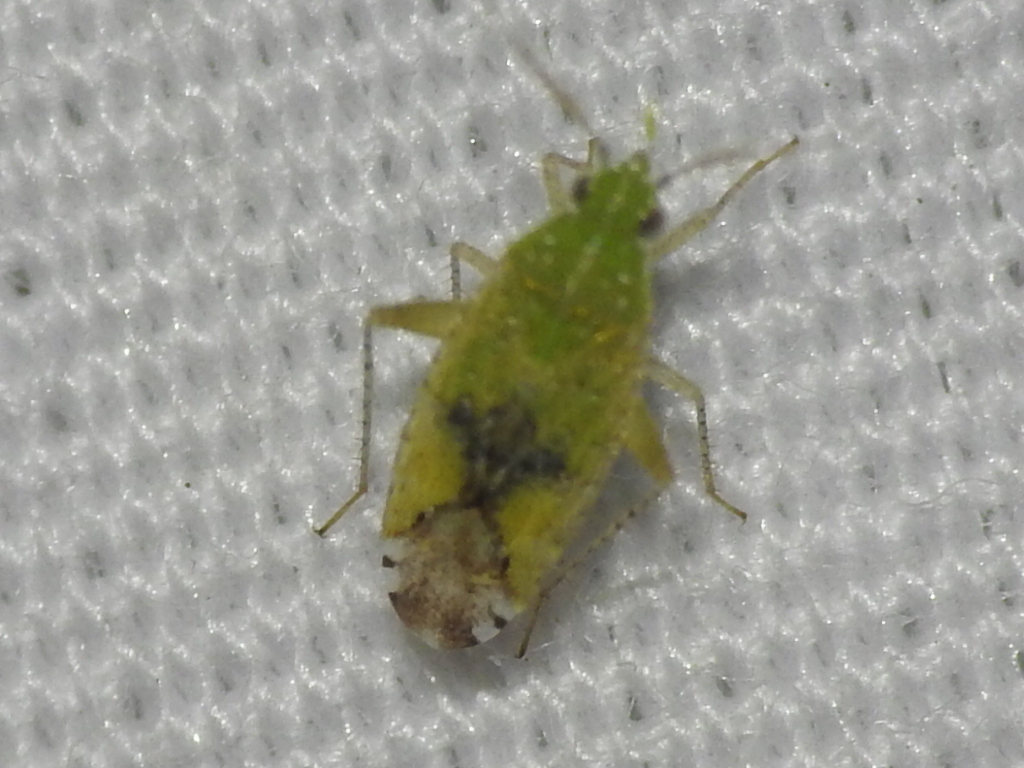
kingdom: Animalia
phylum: Arthropoda
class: Insecta
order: Hemiptera
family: Miridae
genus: Keltonia
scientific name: Keltonia tuckeri
